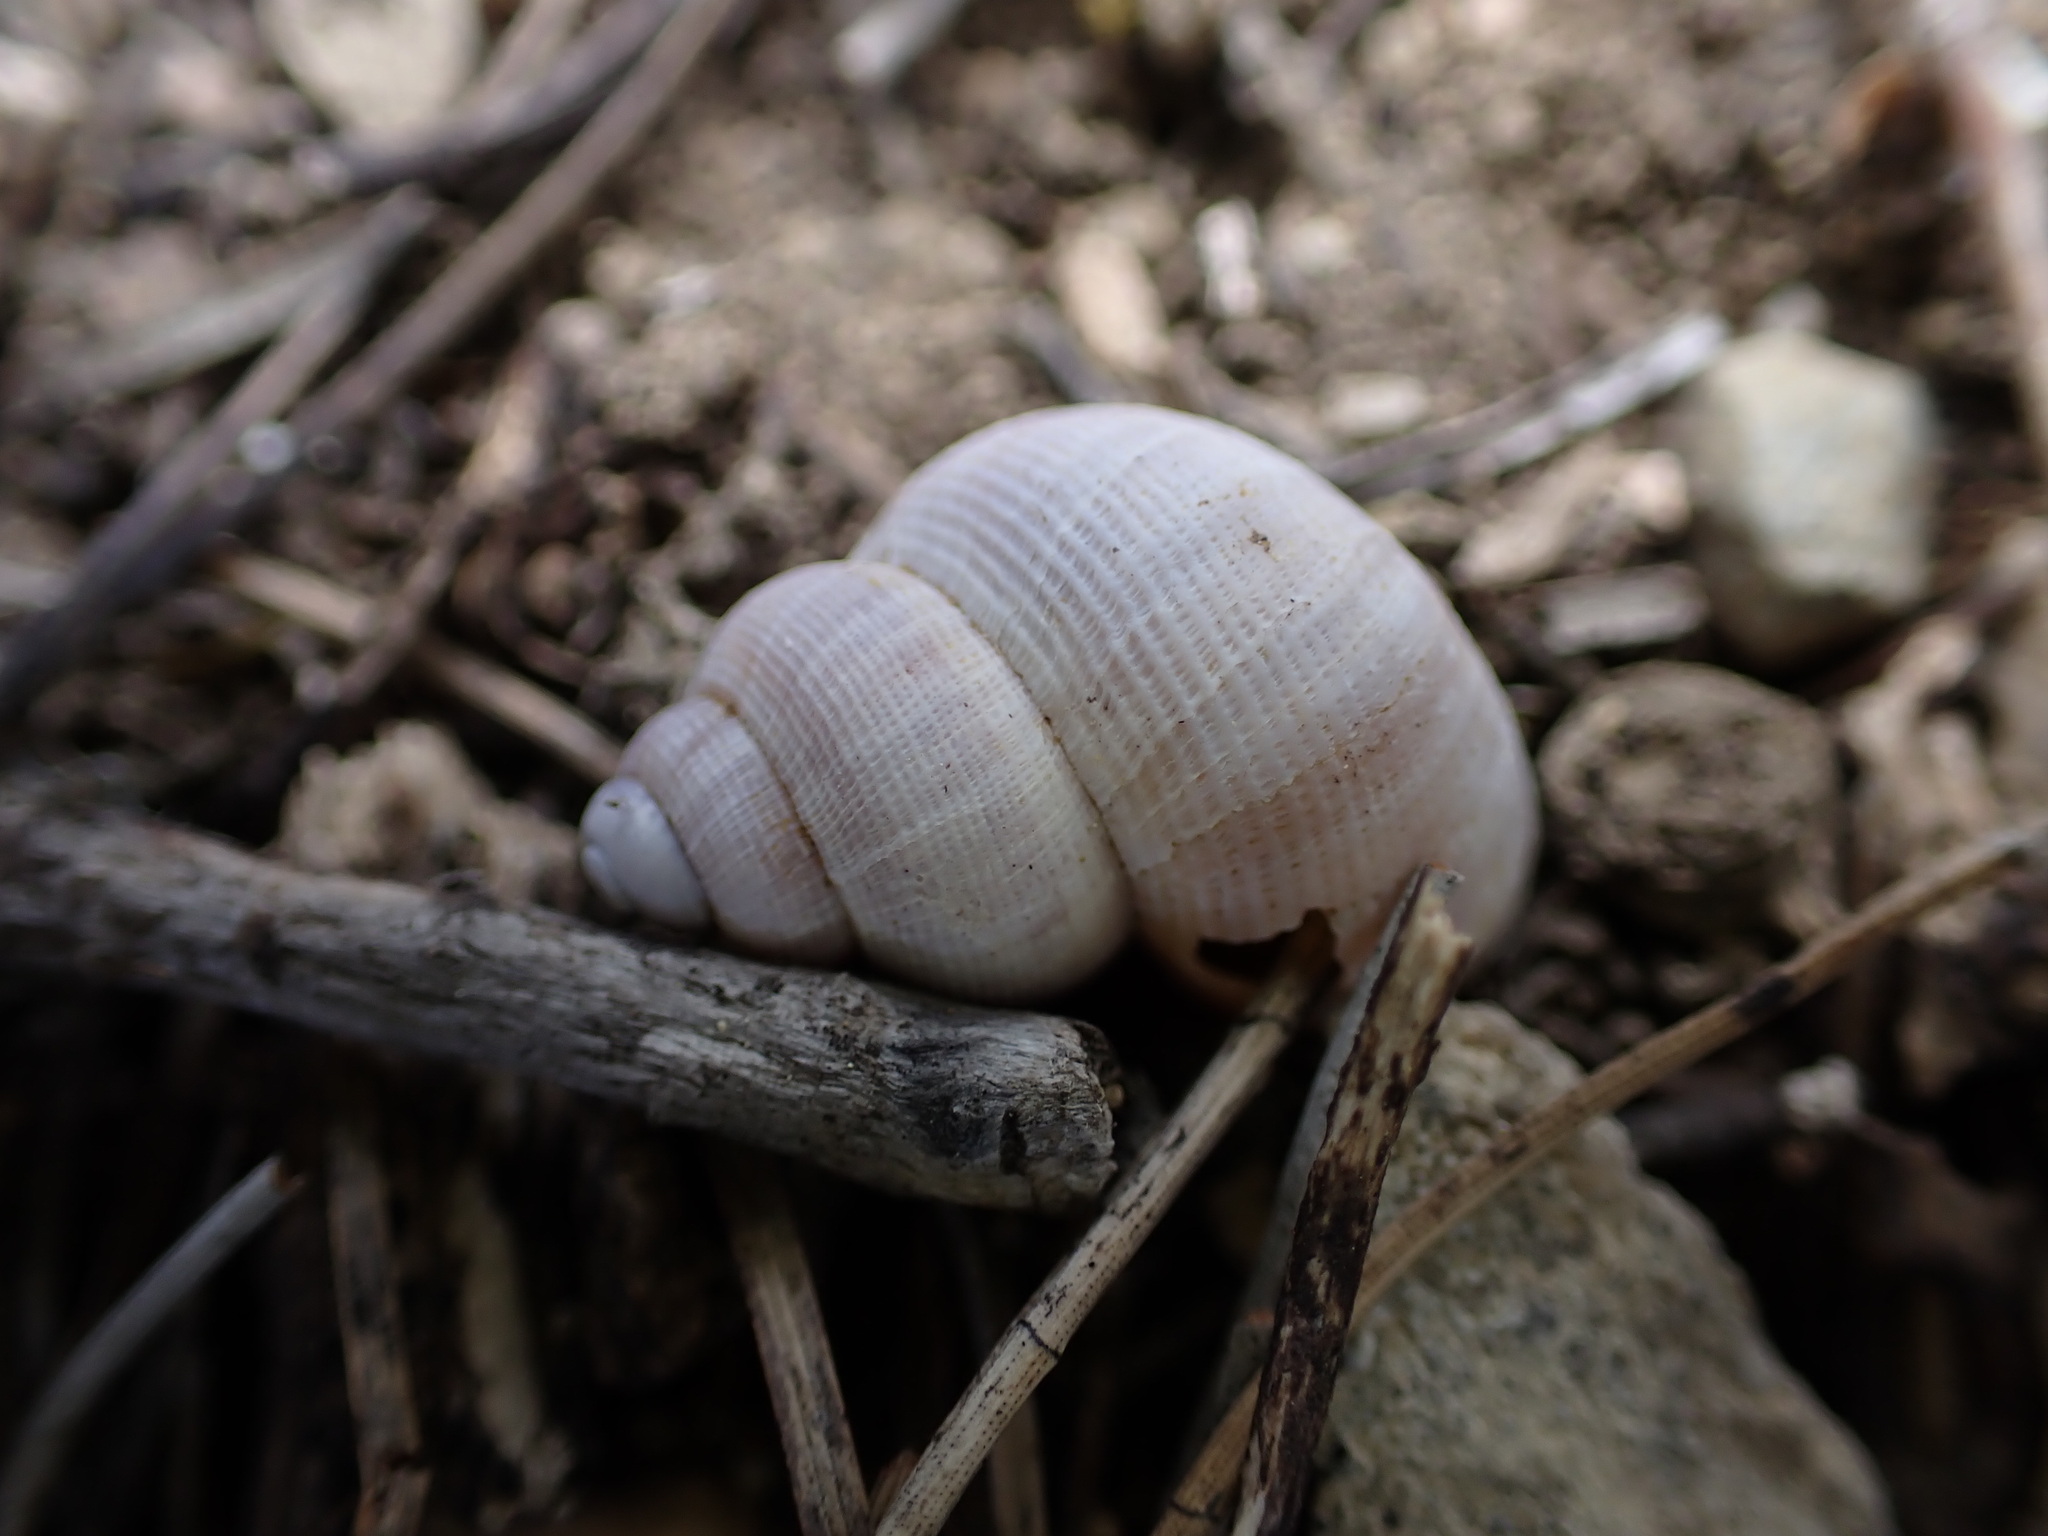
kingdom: Animalia
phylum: Mollusca
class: Gastropoda
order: Littorinimorpha
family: Pomatiidae
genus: Pomatias
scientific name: Pomatias elegans
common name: Red-mouthed snail
